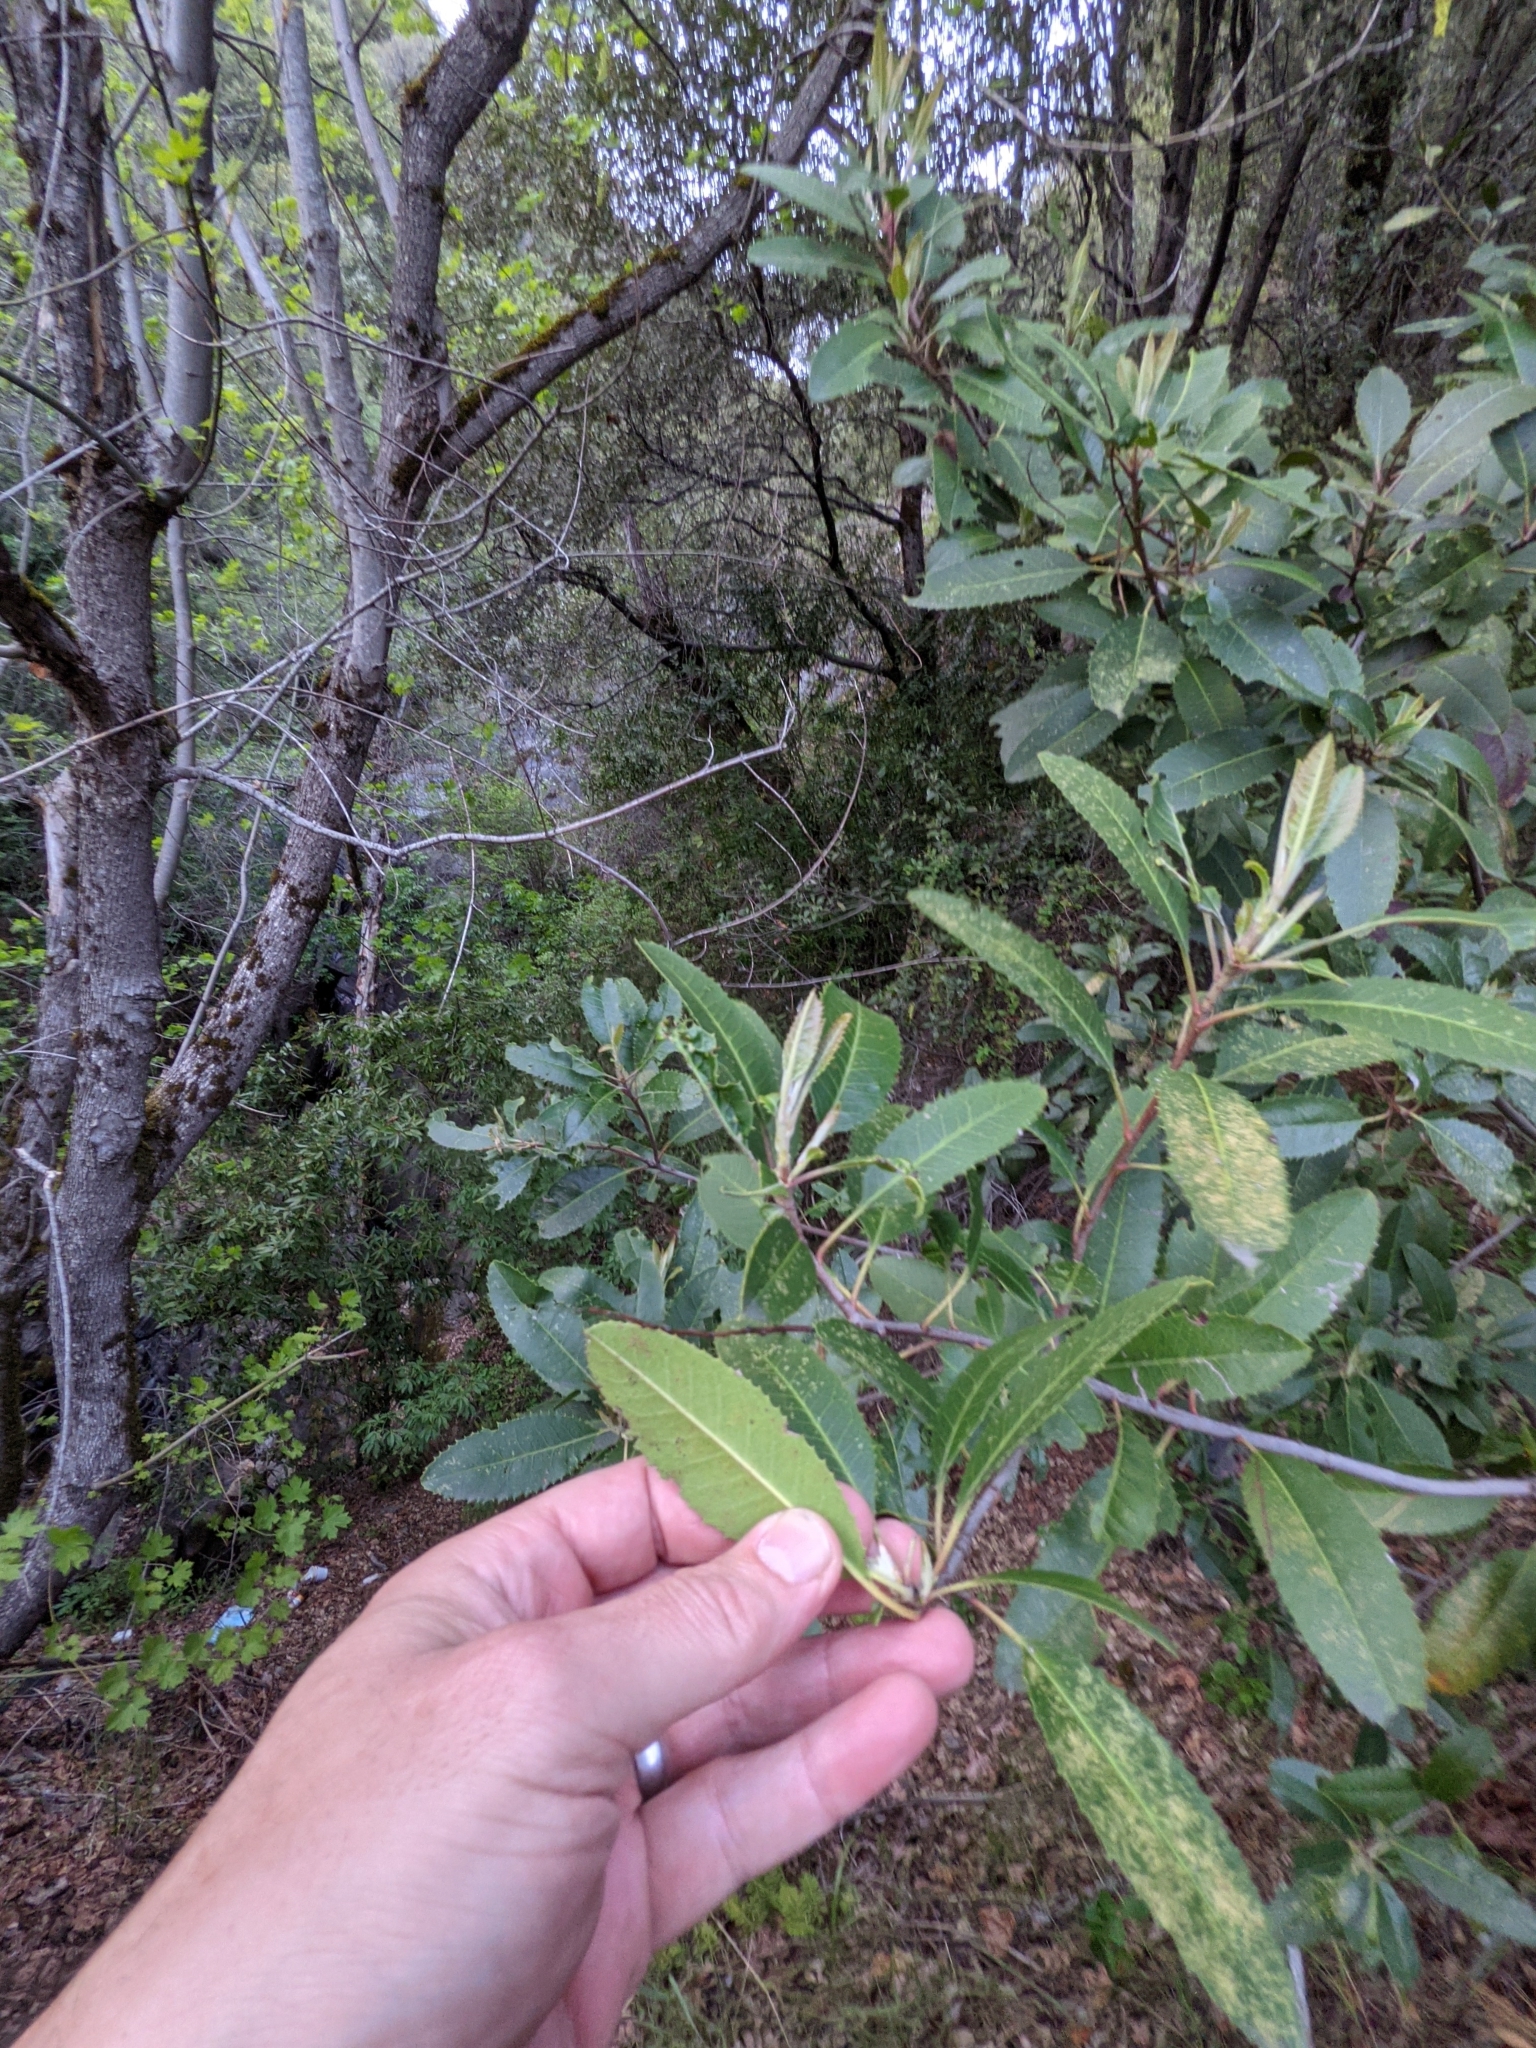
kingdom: Plantae
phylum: Tracheophyta
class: Magnoliopsida
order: Rosales
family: Rosaceae
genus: Heteromeles
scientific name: Heteromeles arbutifolia
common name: California-holly
